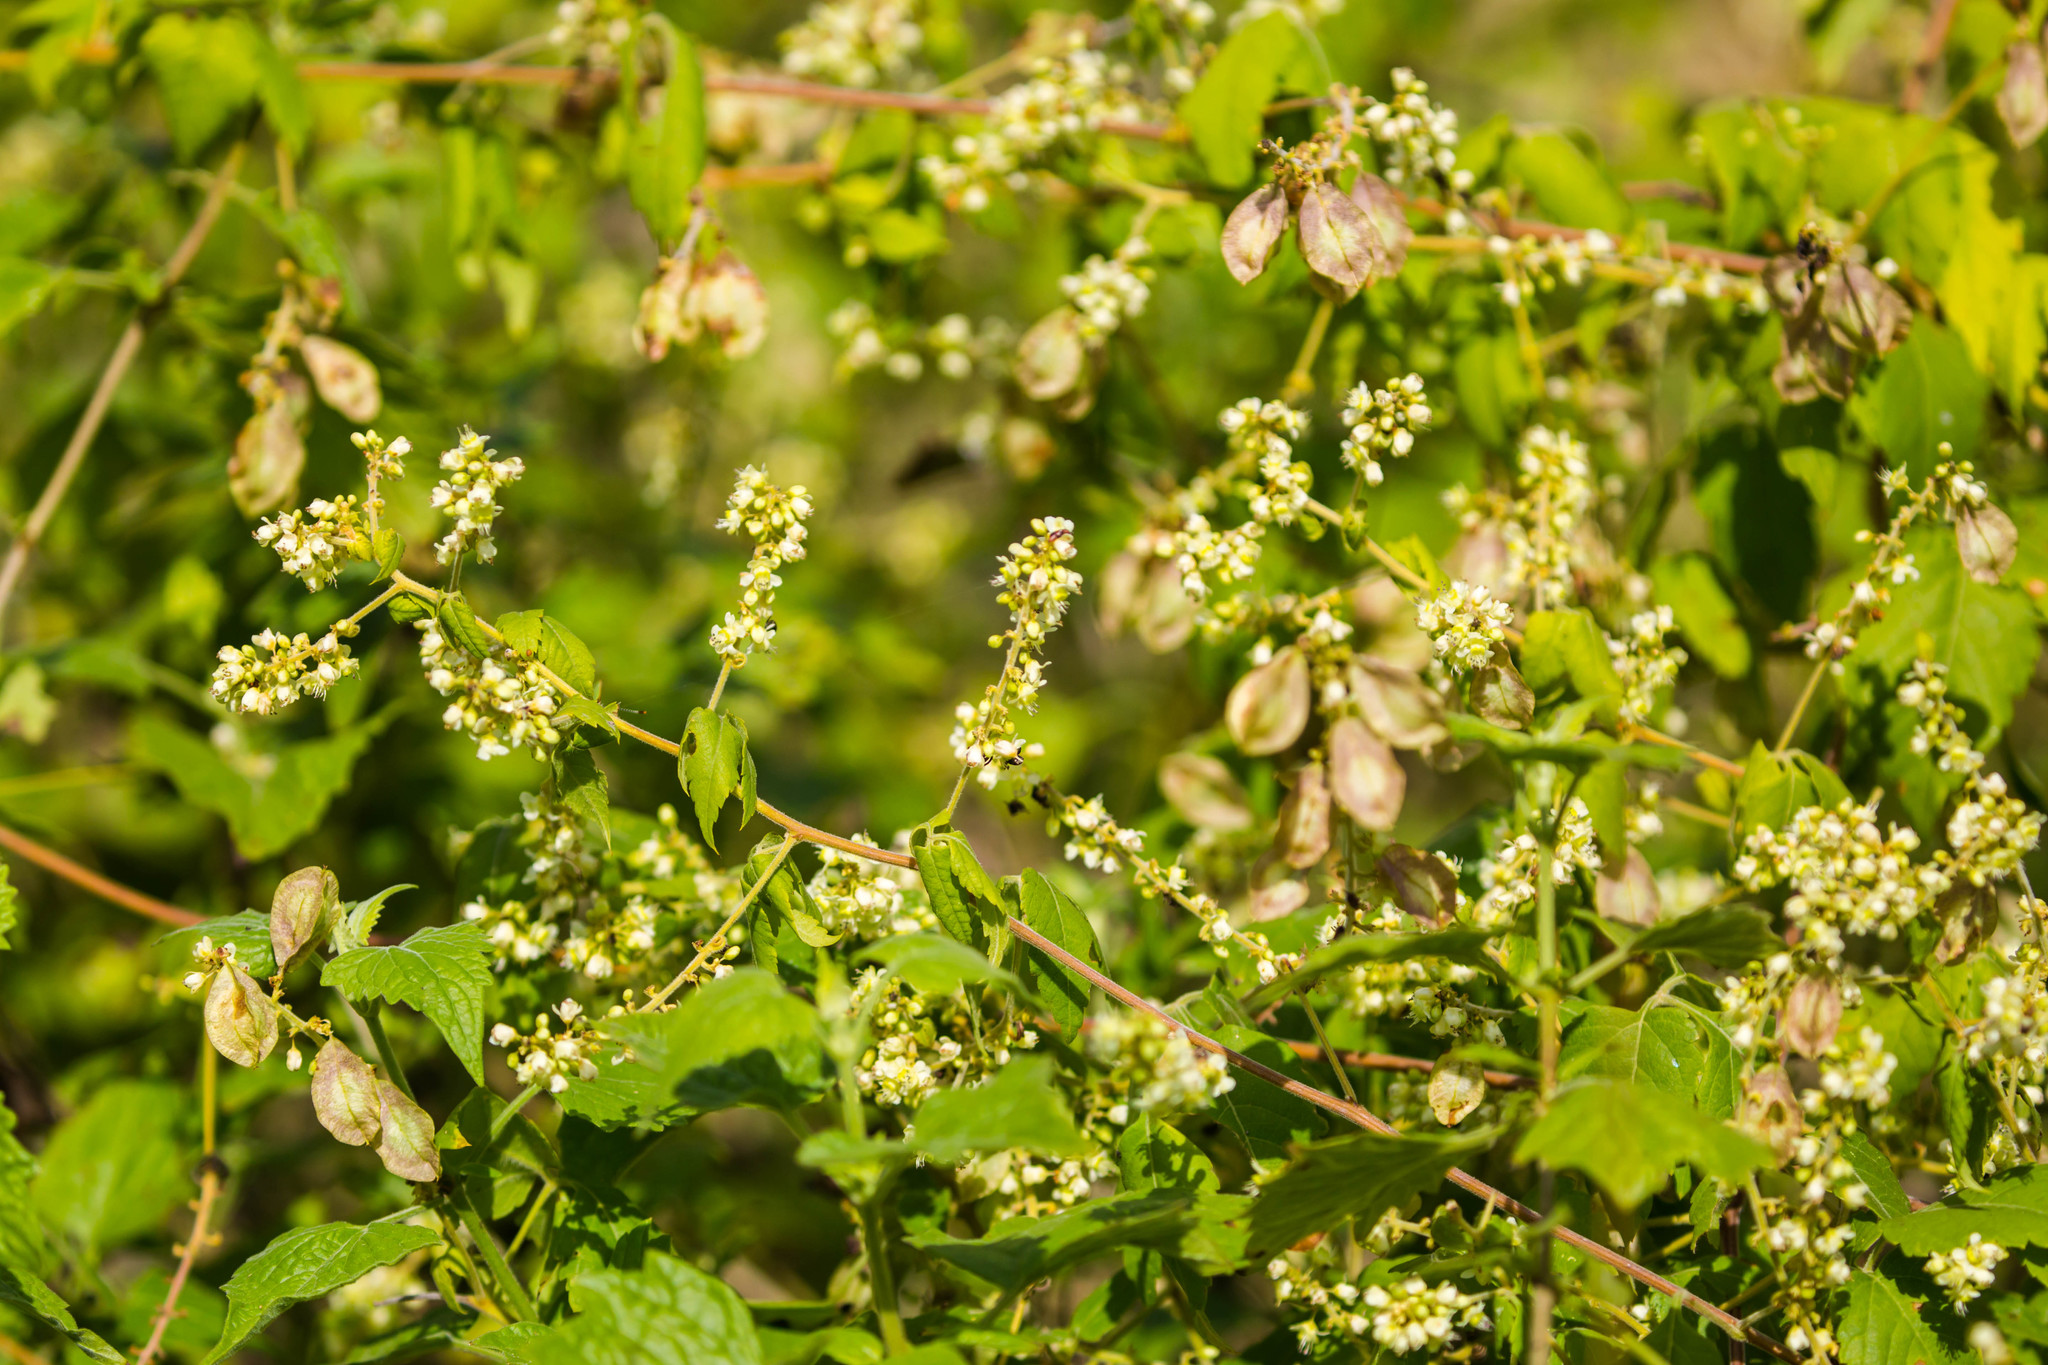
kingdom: Plantae
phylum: Tracheophyta
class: Magnoliopsida
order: Sapindales
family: Sapindaceae
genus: Urvillea
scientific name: Urvillea ulmacea
